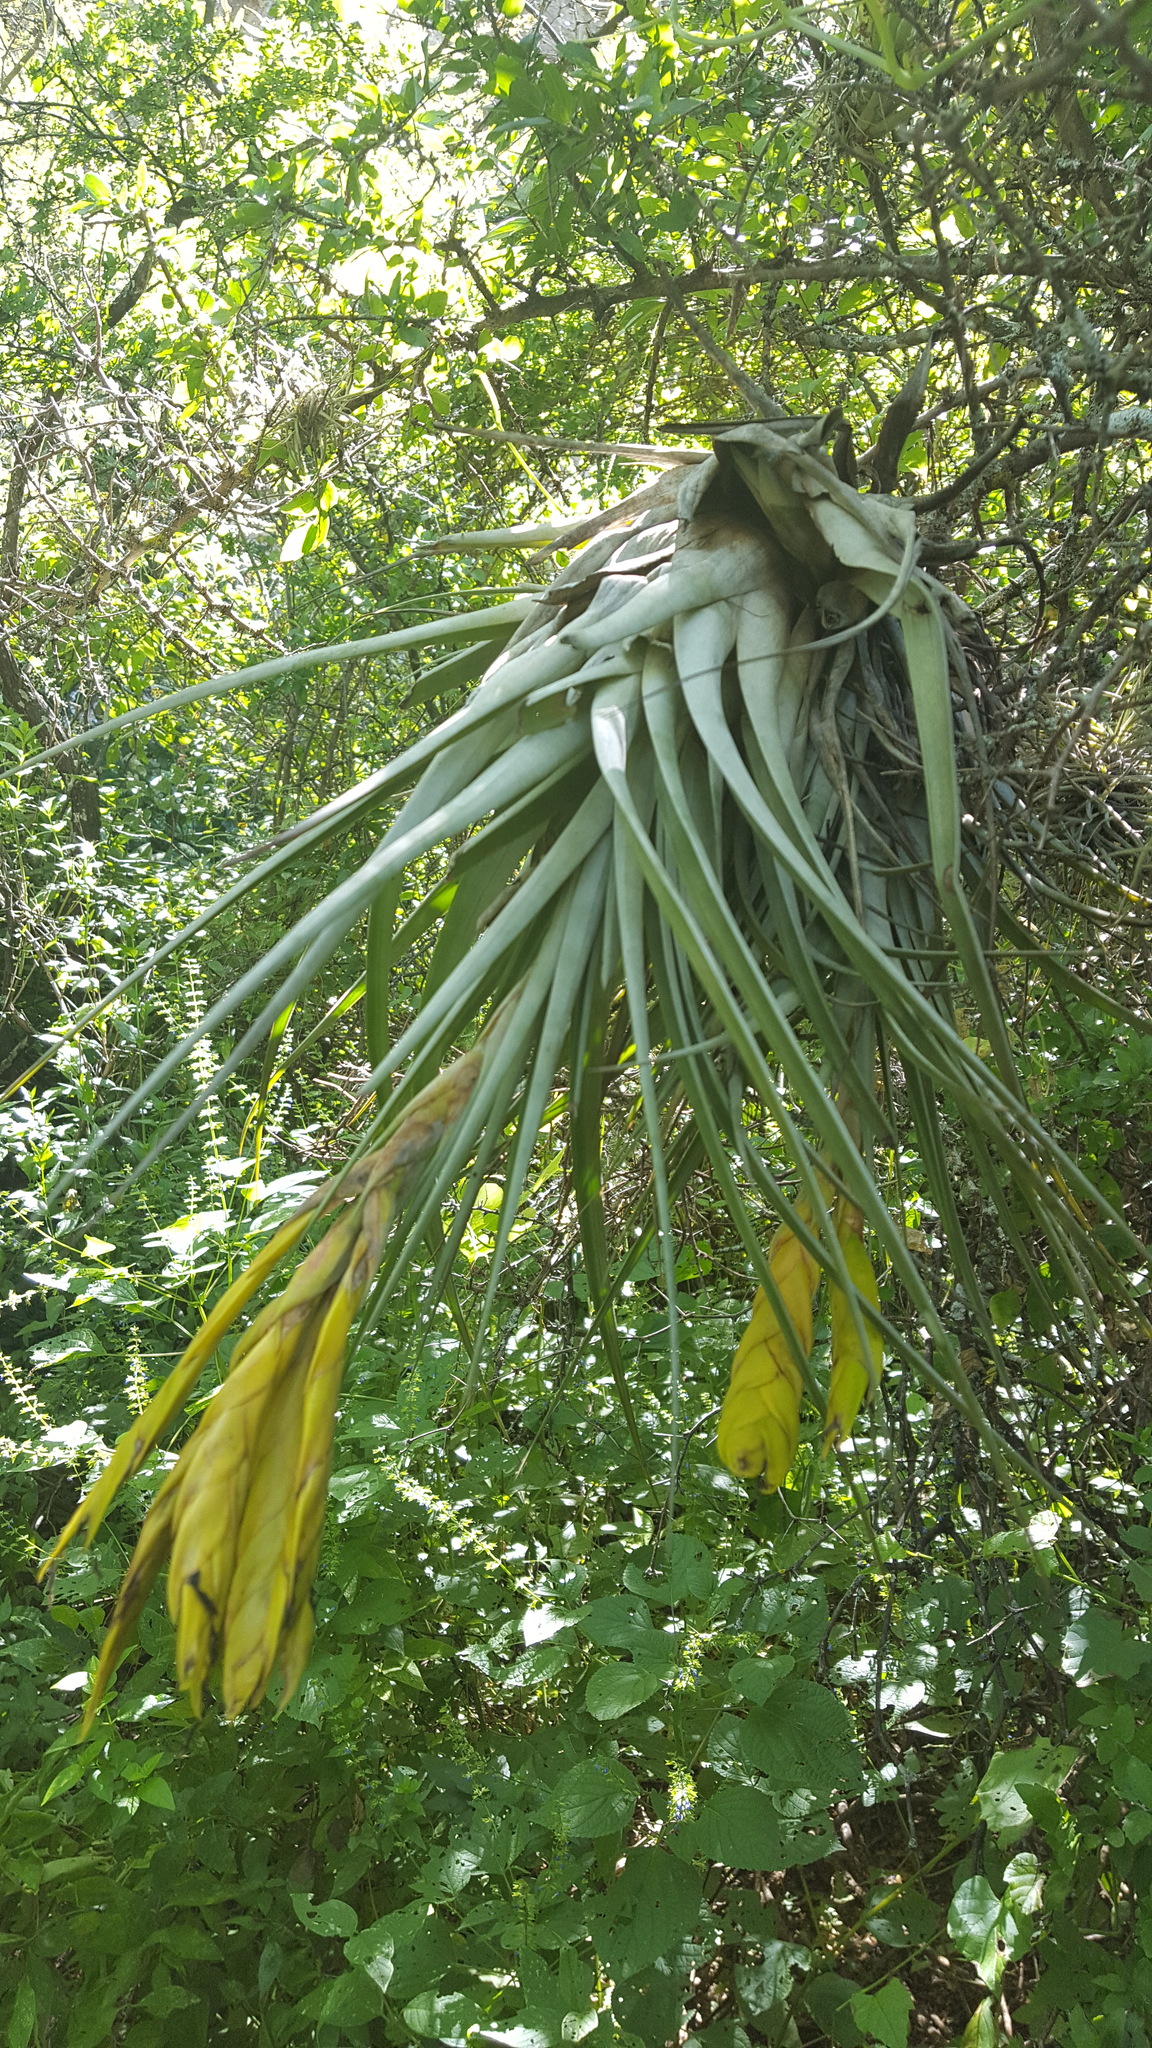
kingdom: Plantae
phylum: Tracheophyta
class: Liliopsida
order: Poales
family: Bromeliaceae
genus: Tillandsia
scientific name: Tillandsia fasciculata
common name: Giant airplant
